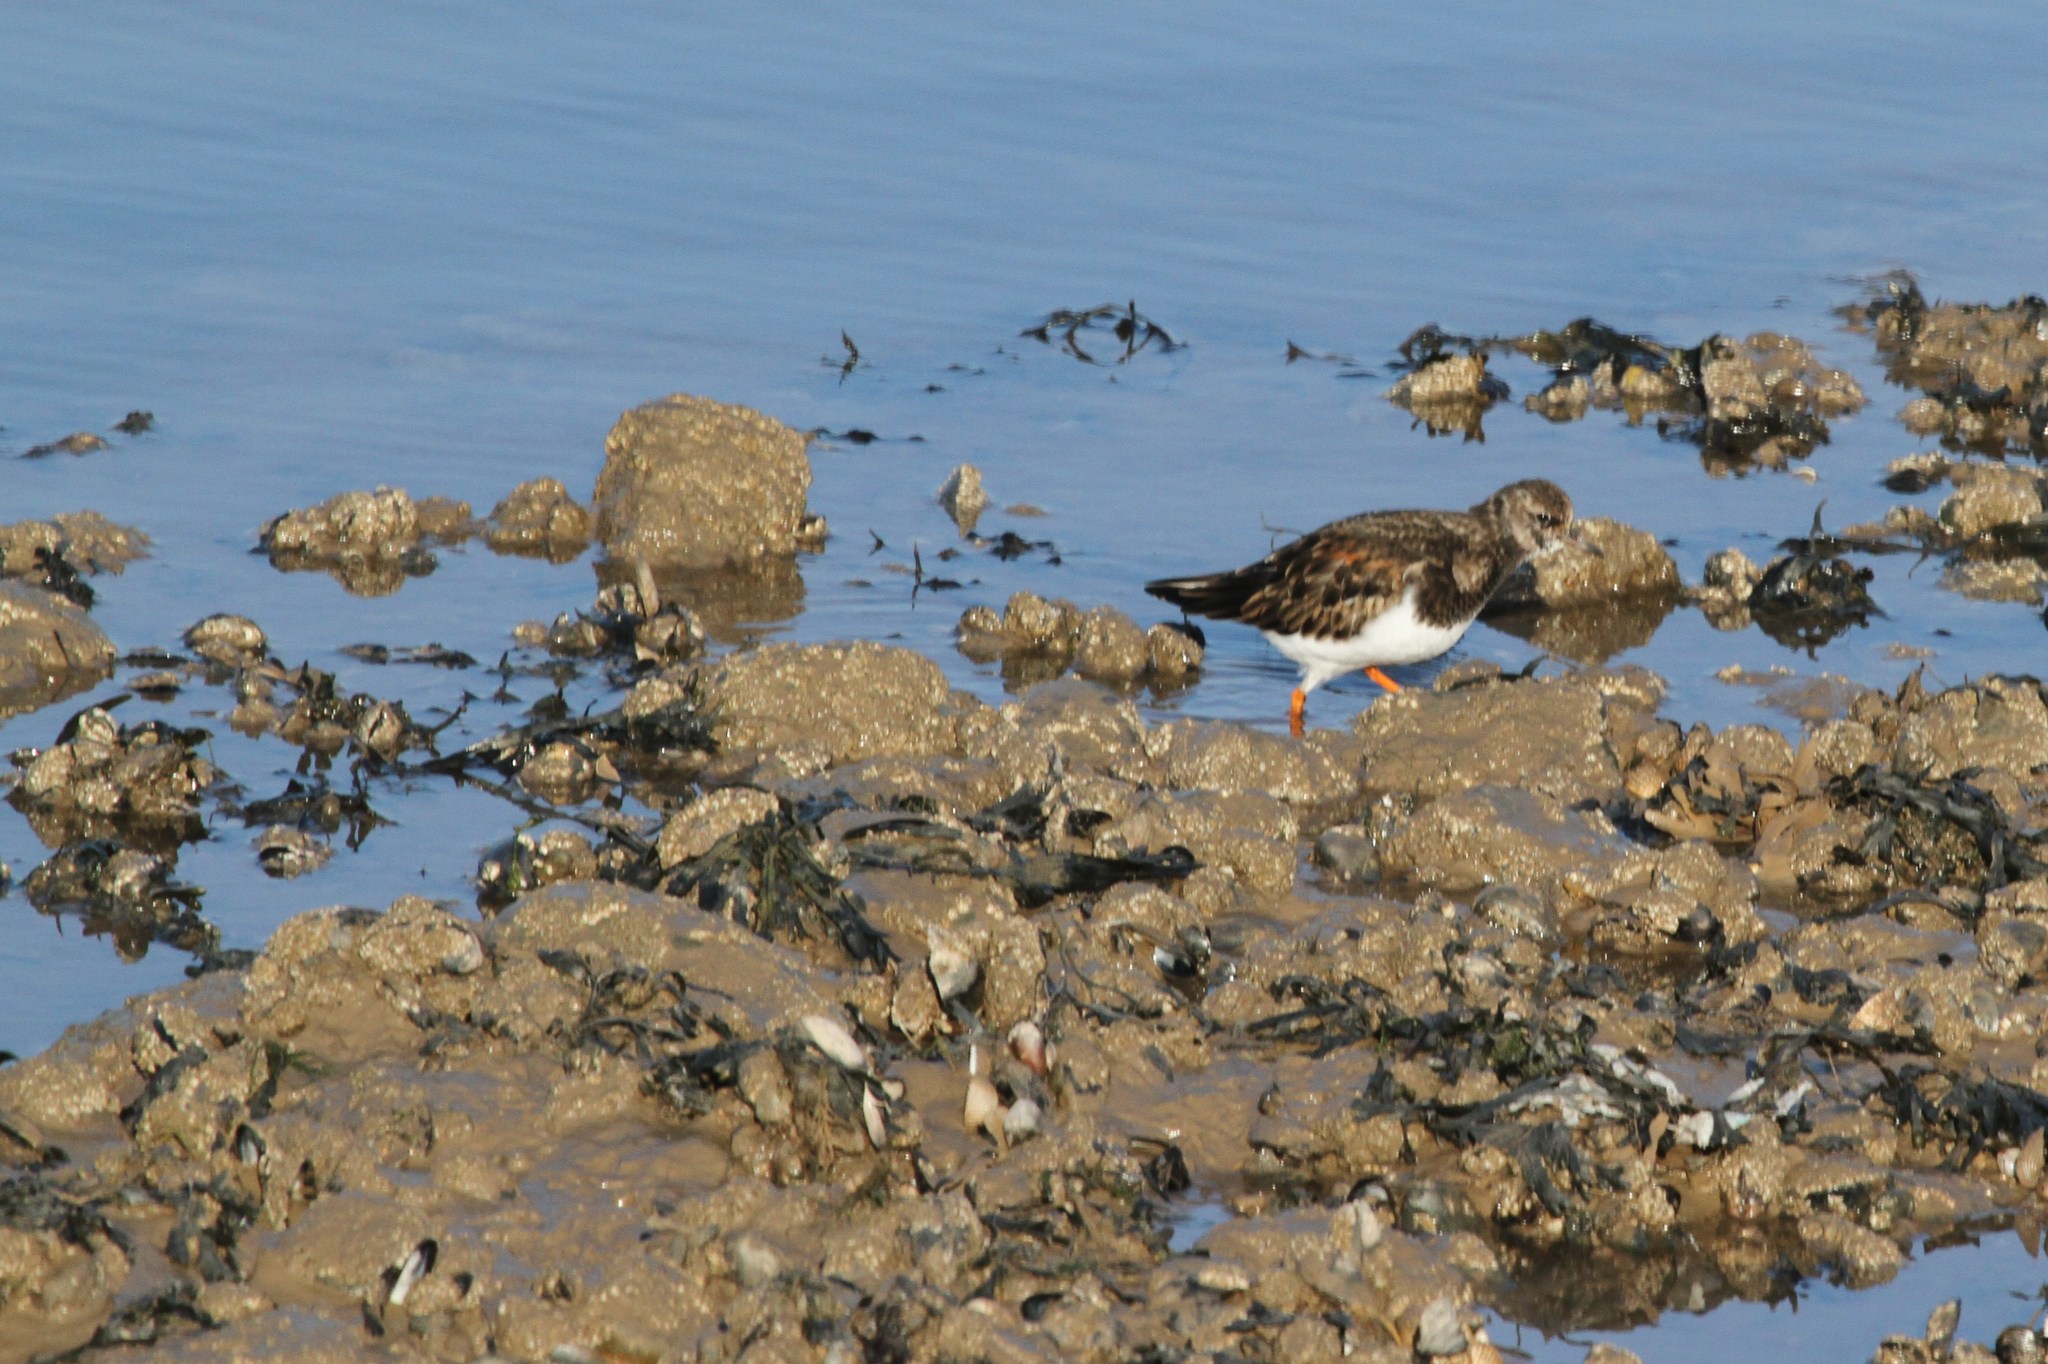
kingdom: Animalia
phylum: Chordata
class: Aves
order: Charadriiformes
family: Scolopacidae
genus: Arenaria
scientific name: Arenaria interpres
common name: Ruddy turnstone
